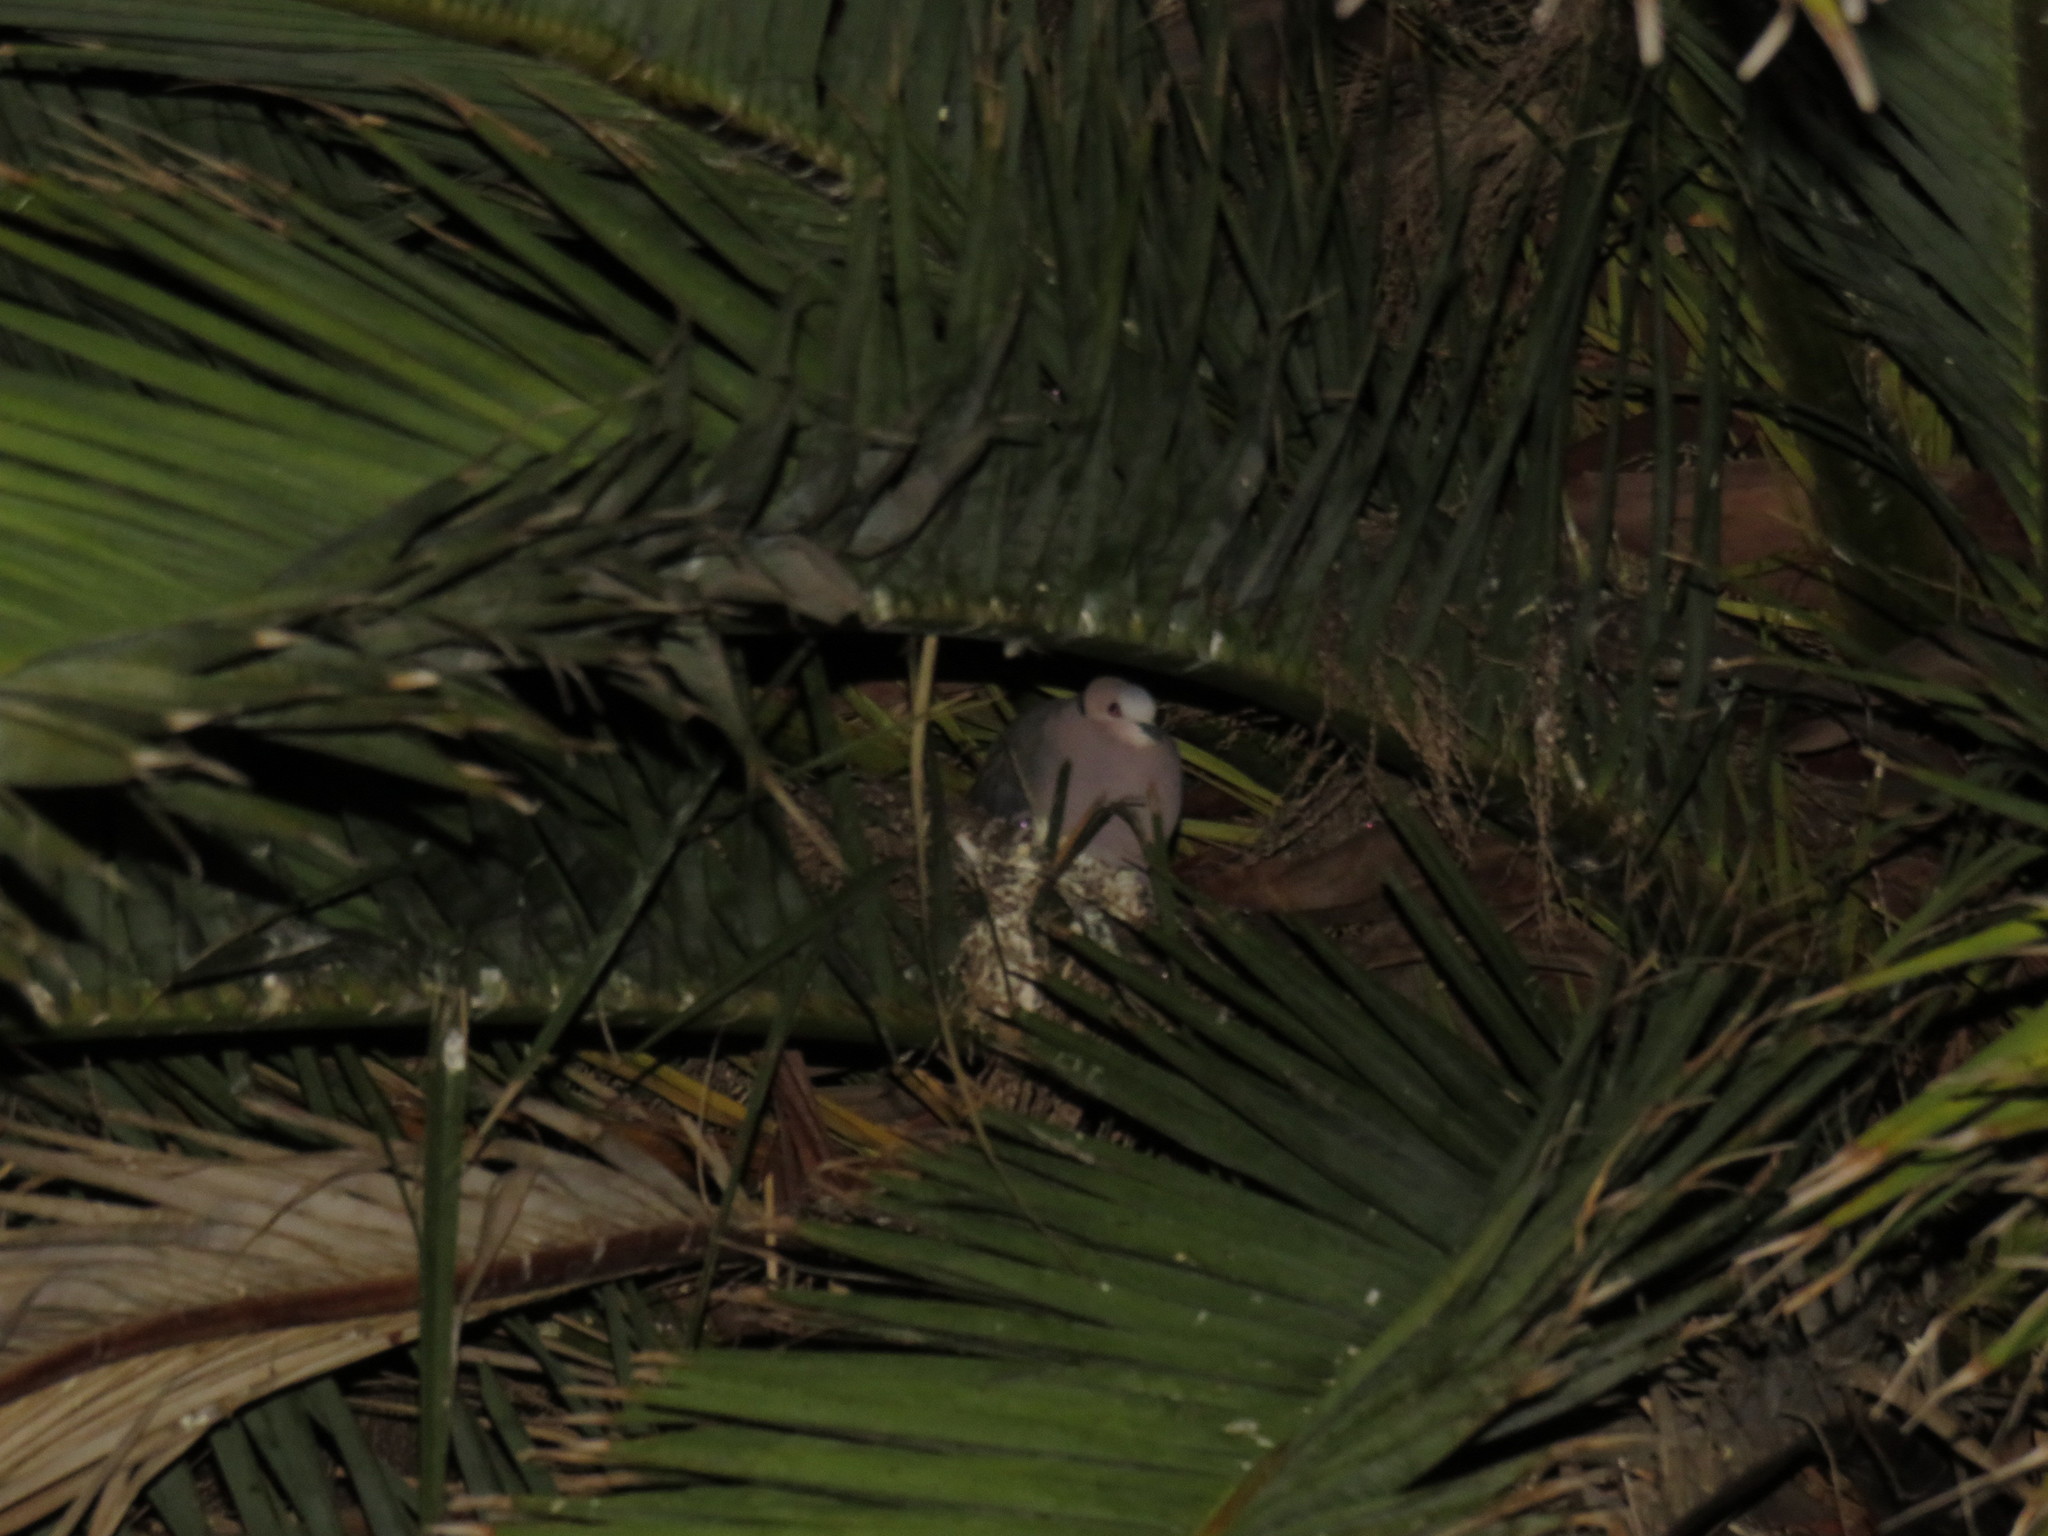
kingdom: Animalia
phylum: Chordata
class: Aves
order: Columbiformes
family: Columbidae
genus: Streptopelia
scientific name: Streptopelia semitorquata
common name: Red-eyed dove
